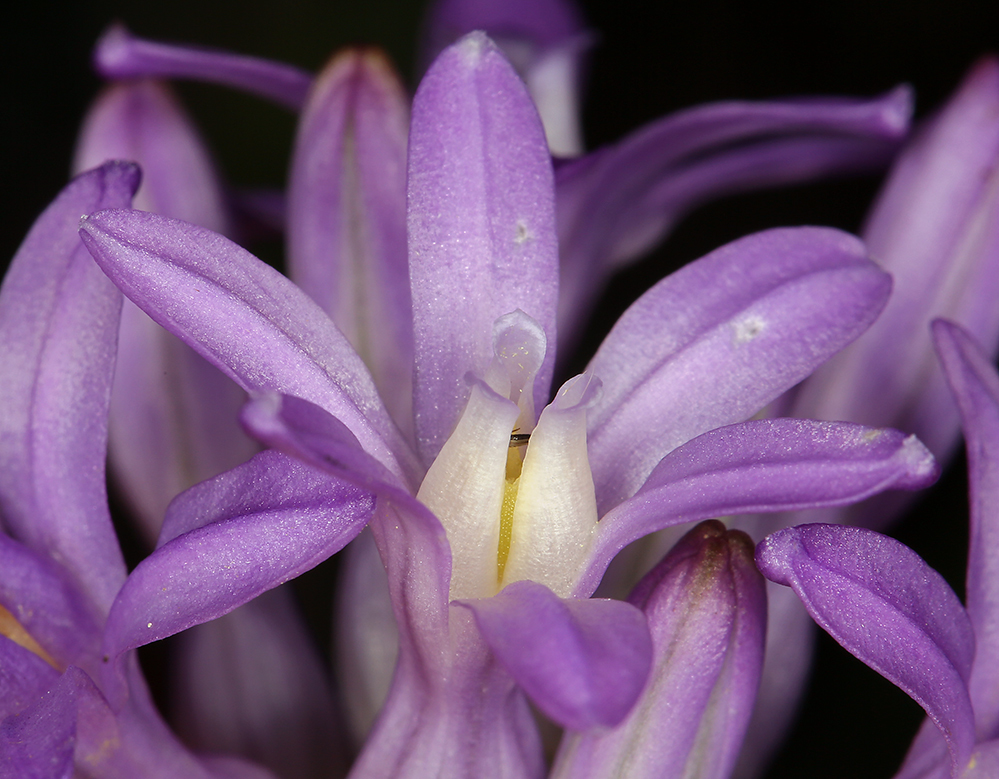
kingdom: Plantae
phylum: Tracheophyta
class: Liliopsida
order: Asparagales
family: Asparagaceae
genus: Dichelostemma
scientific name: Dichelostemma multiflorum
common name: Round-tooth ookow
